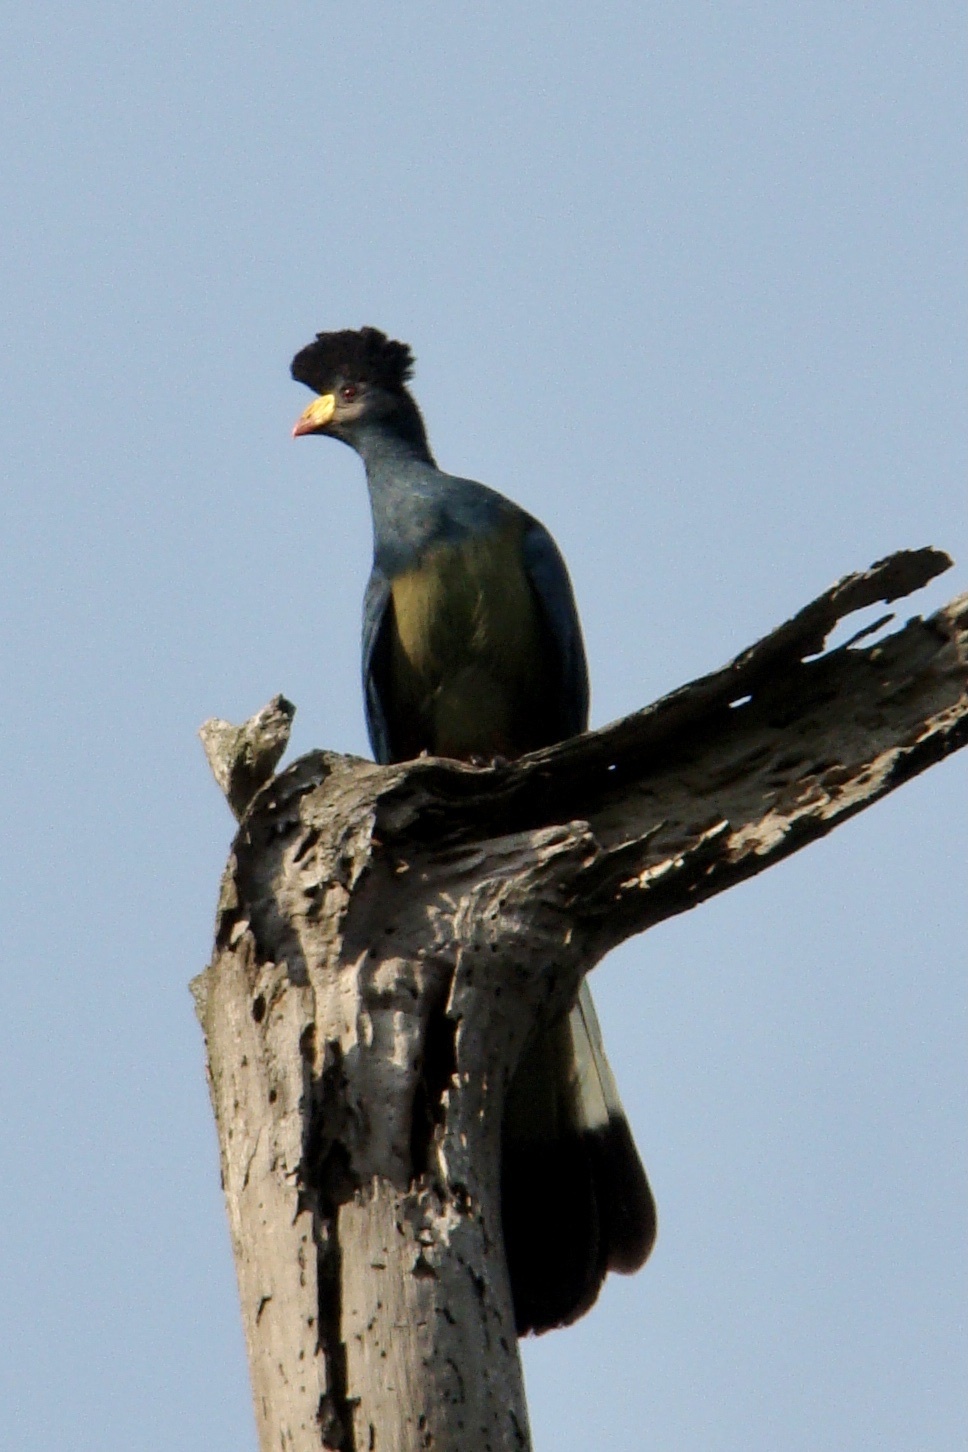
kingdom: Animalia
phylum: Chordata
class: Aves
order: Musophagiformes
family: Musophagidae
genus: Corythaeola
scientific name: Corythaeola cristata
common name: Great blue turaco
